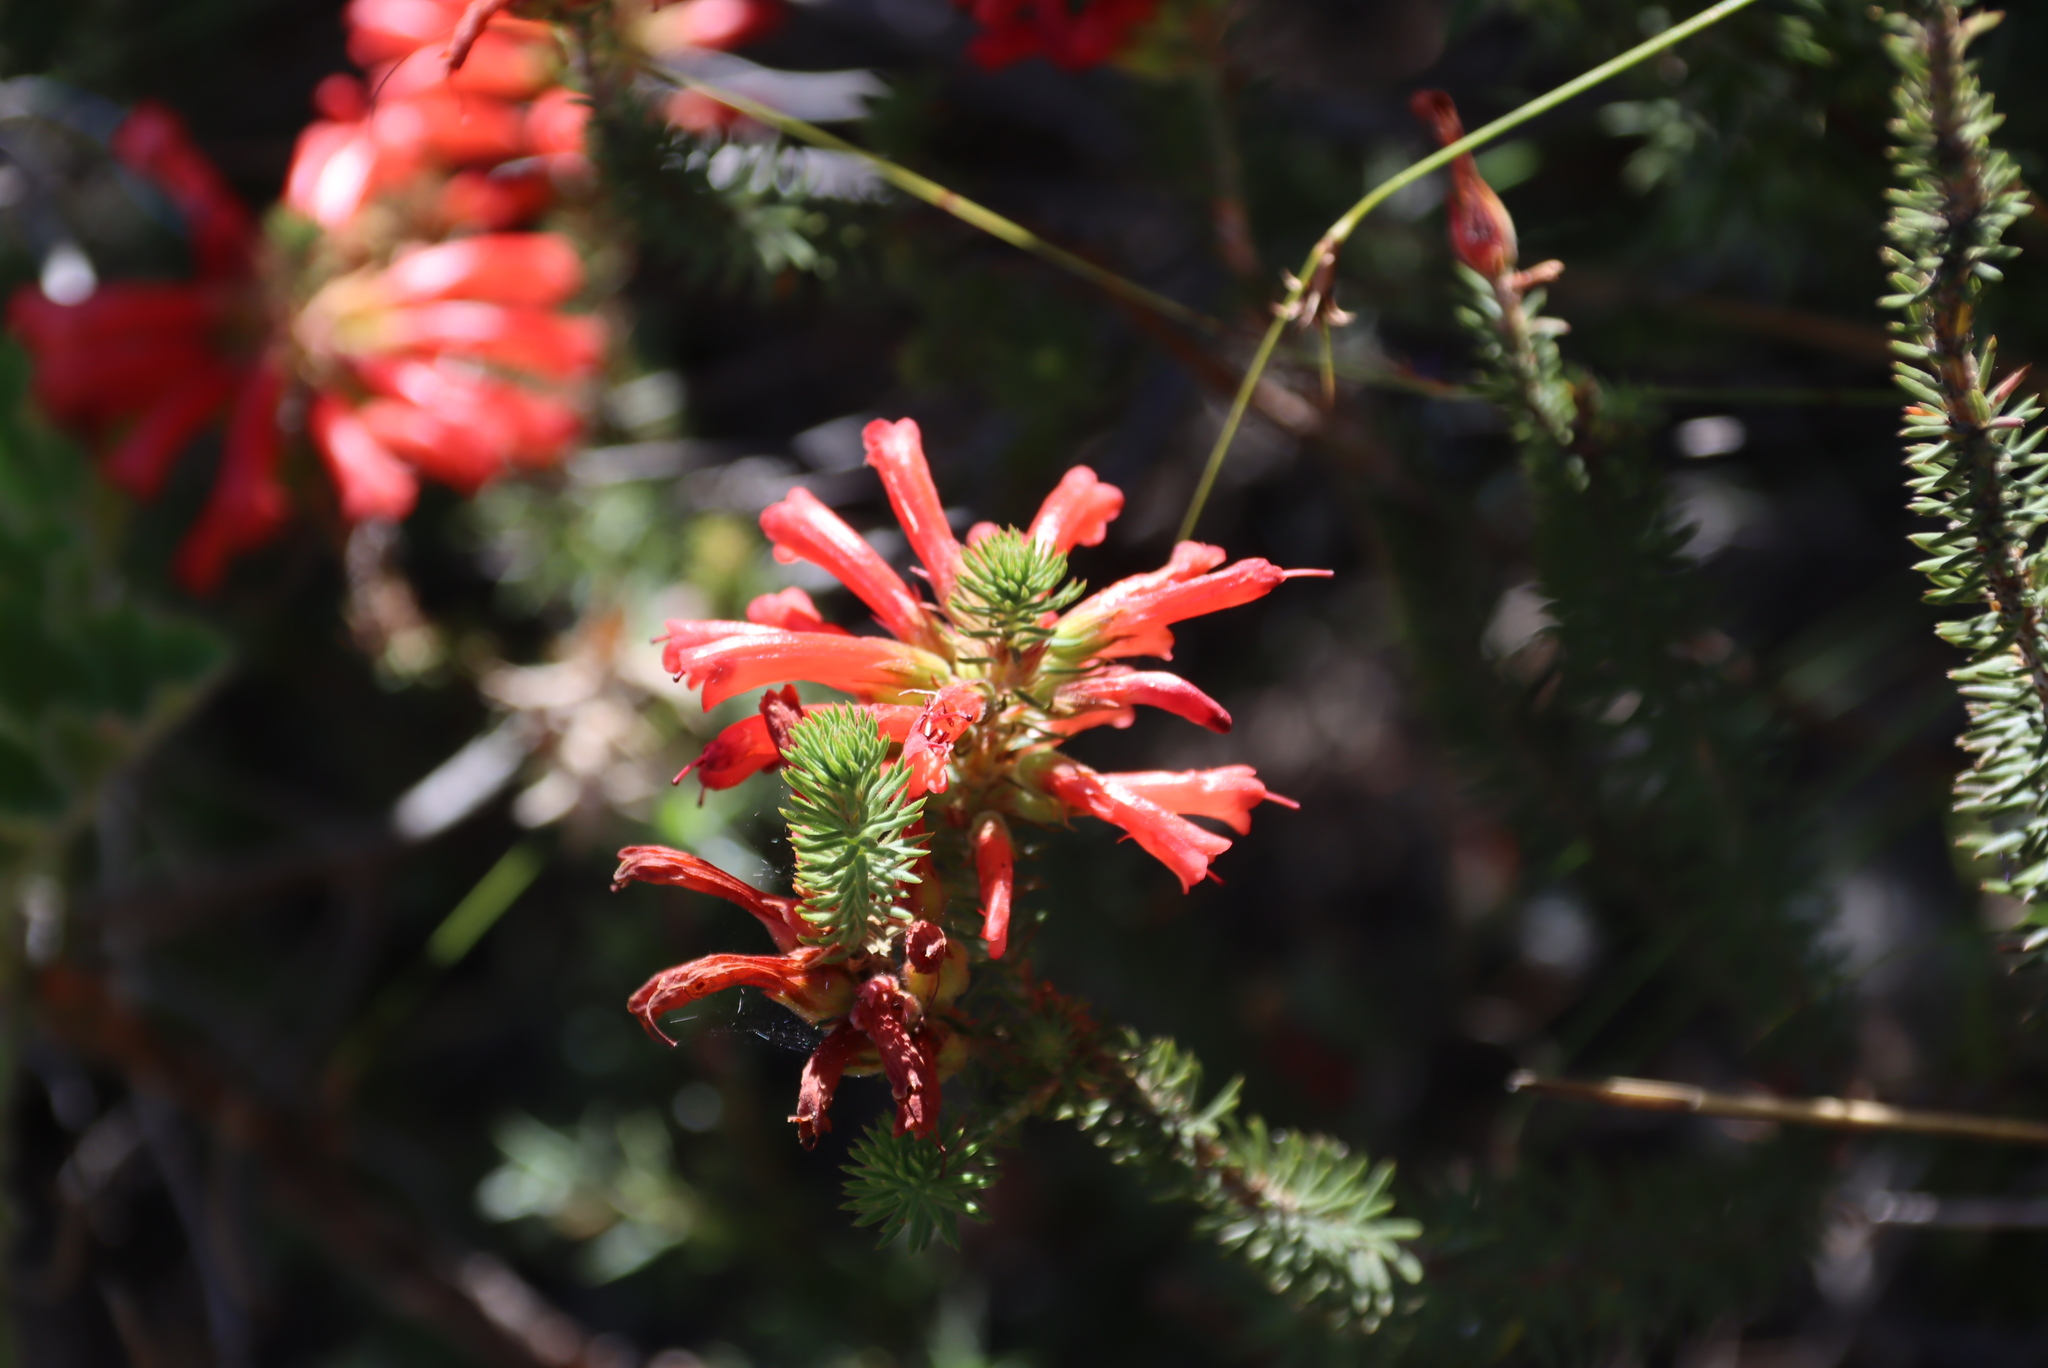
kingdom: Plantae
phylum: Tracheophyta
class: Magnoliopsida
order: Ericales
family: Ericaceae
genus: Erica
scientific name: Erica abietina
